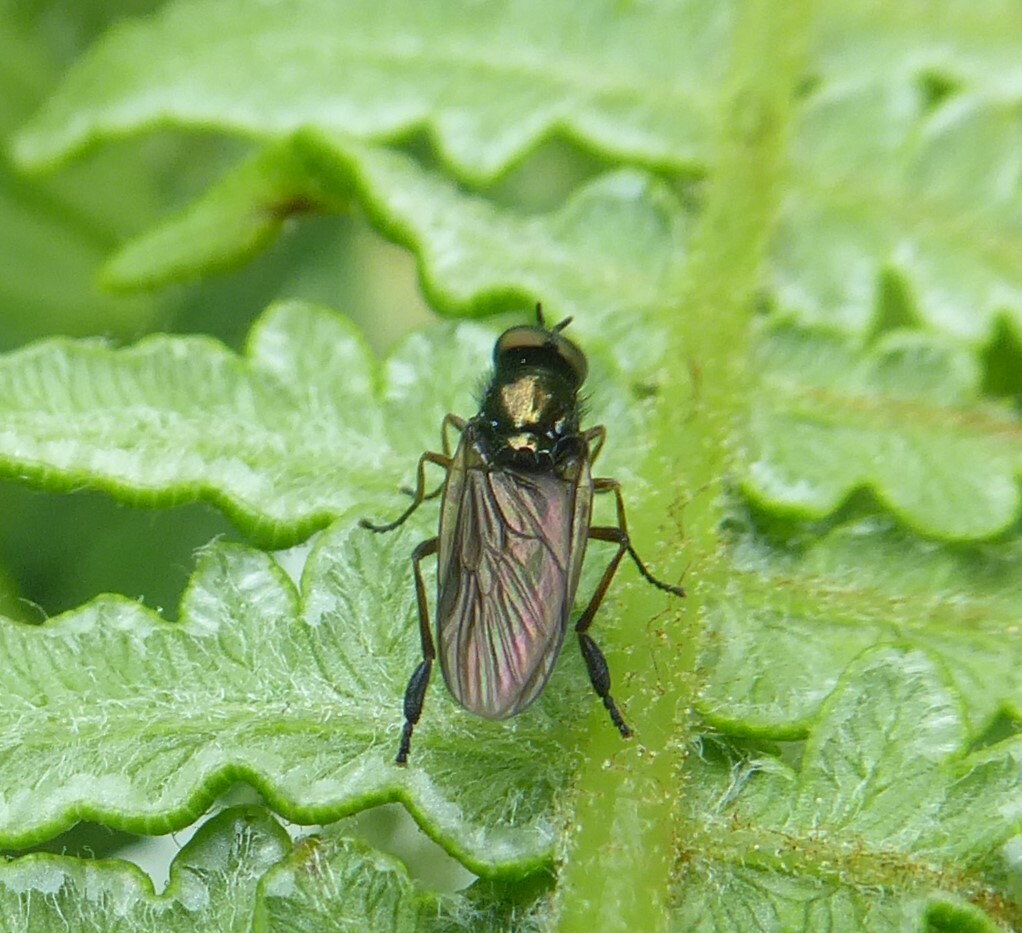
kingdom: Animalia
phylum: Arthropoda
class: Insecta
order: Diptera
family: Stratiomyidae
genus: Beris
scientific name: Beris chalybata
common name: Murky-legged black legionnaire
